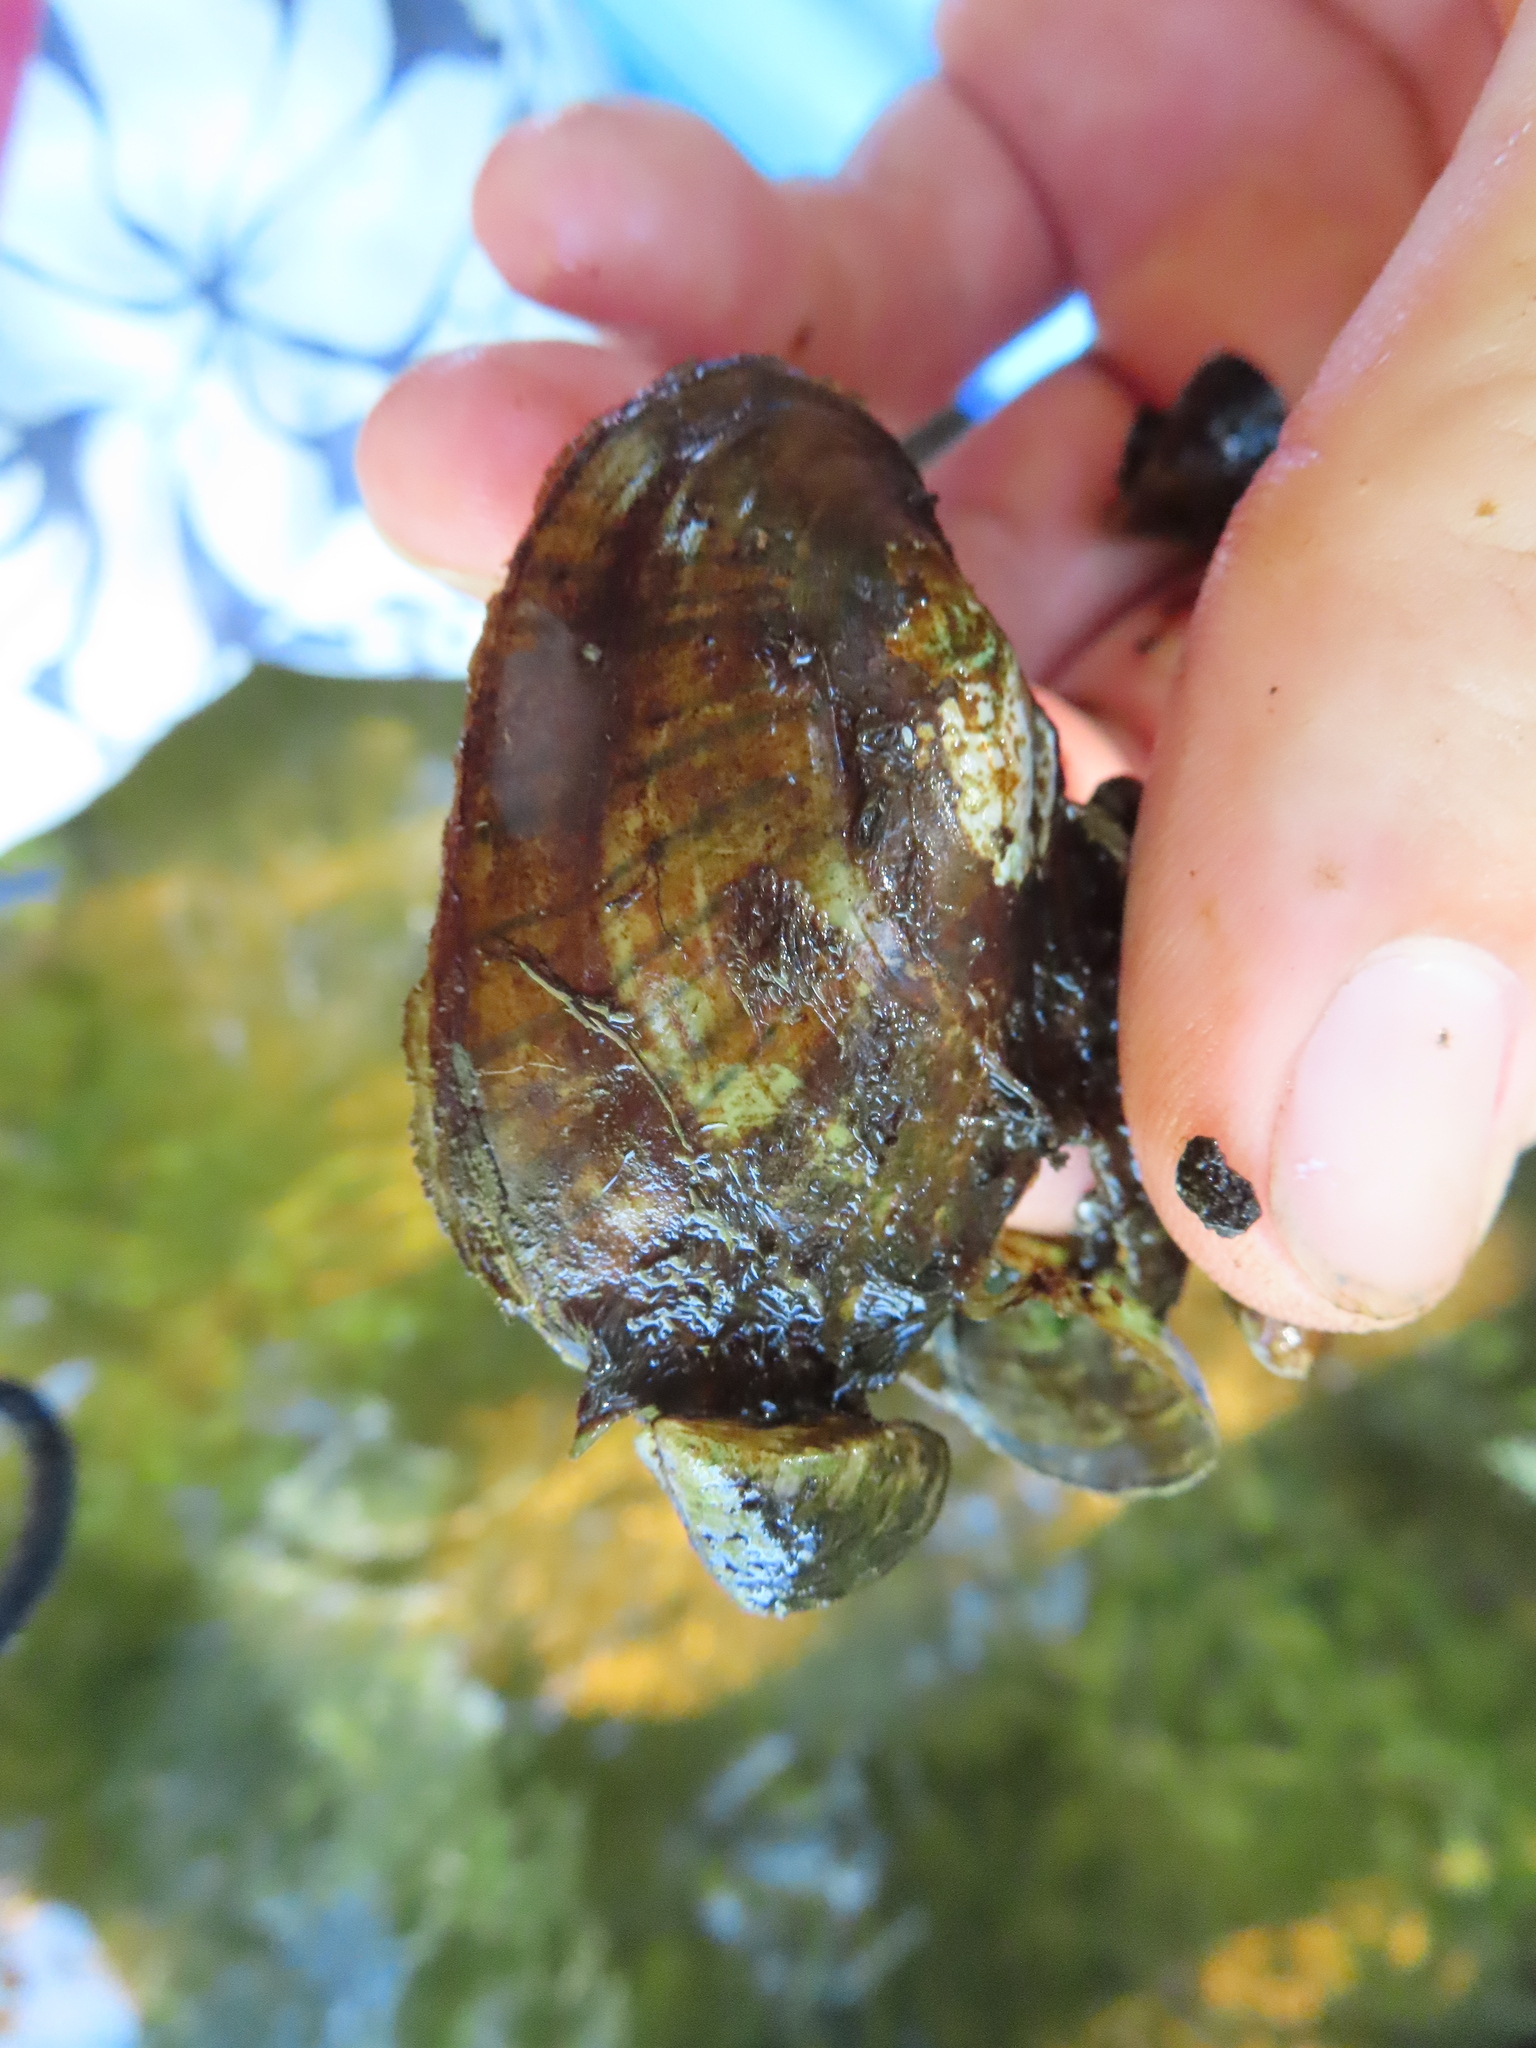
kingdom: Animalia
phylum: Mollusca
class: Bivalvia
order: Unionida
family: Unionidae
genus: Lampsilis
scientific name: Lampsilis siliquoidea
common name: Fatmucket
